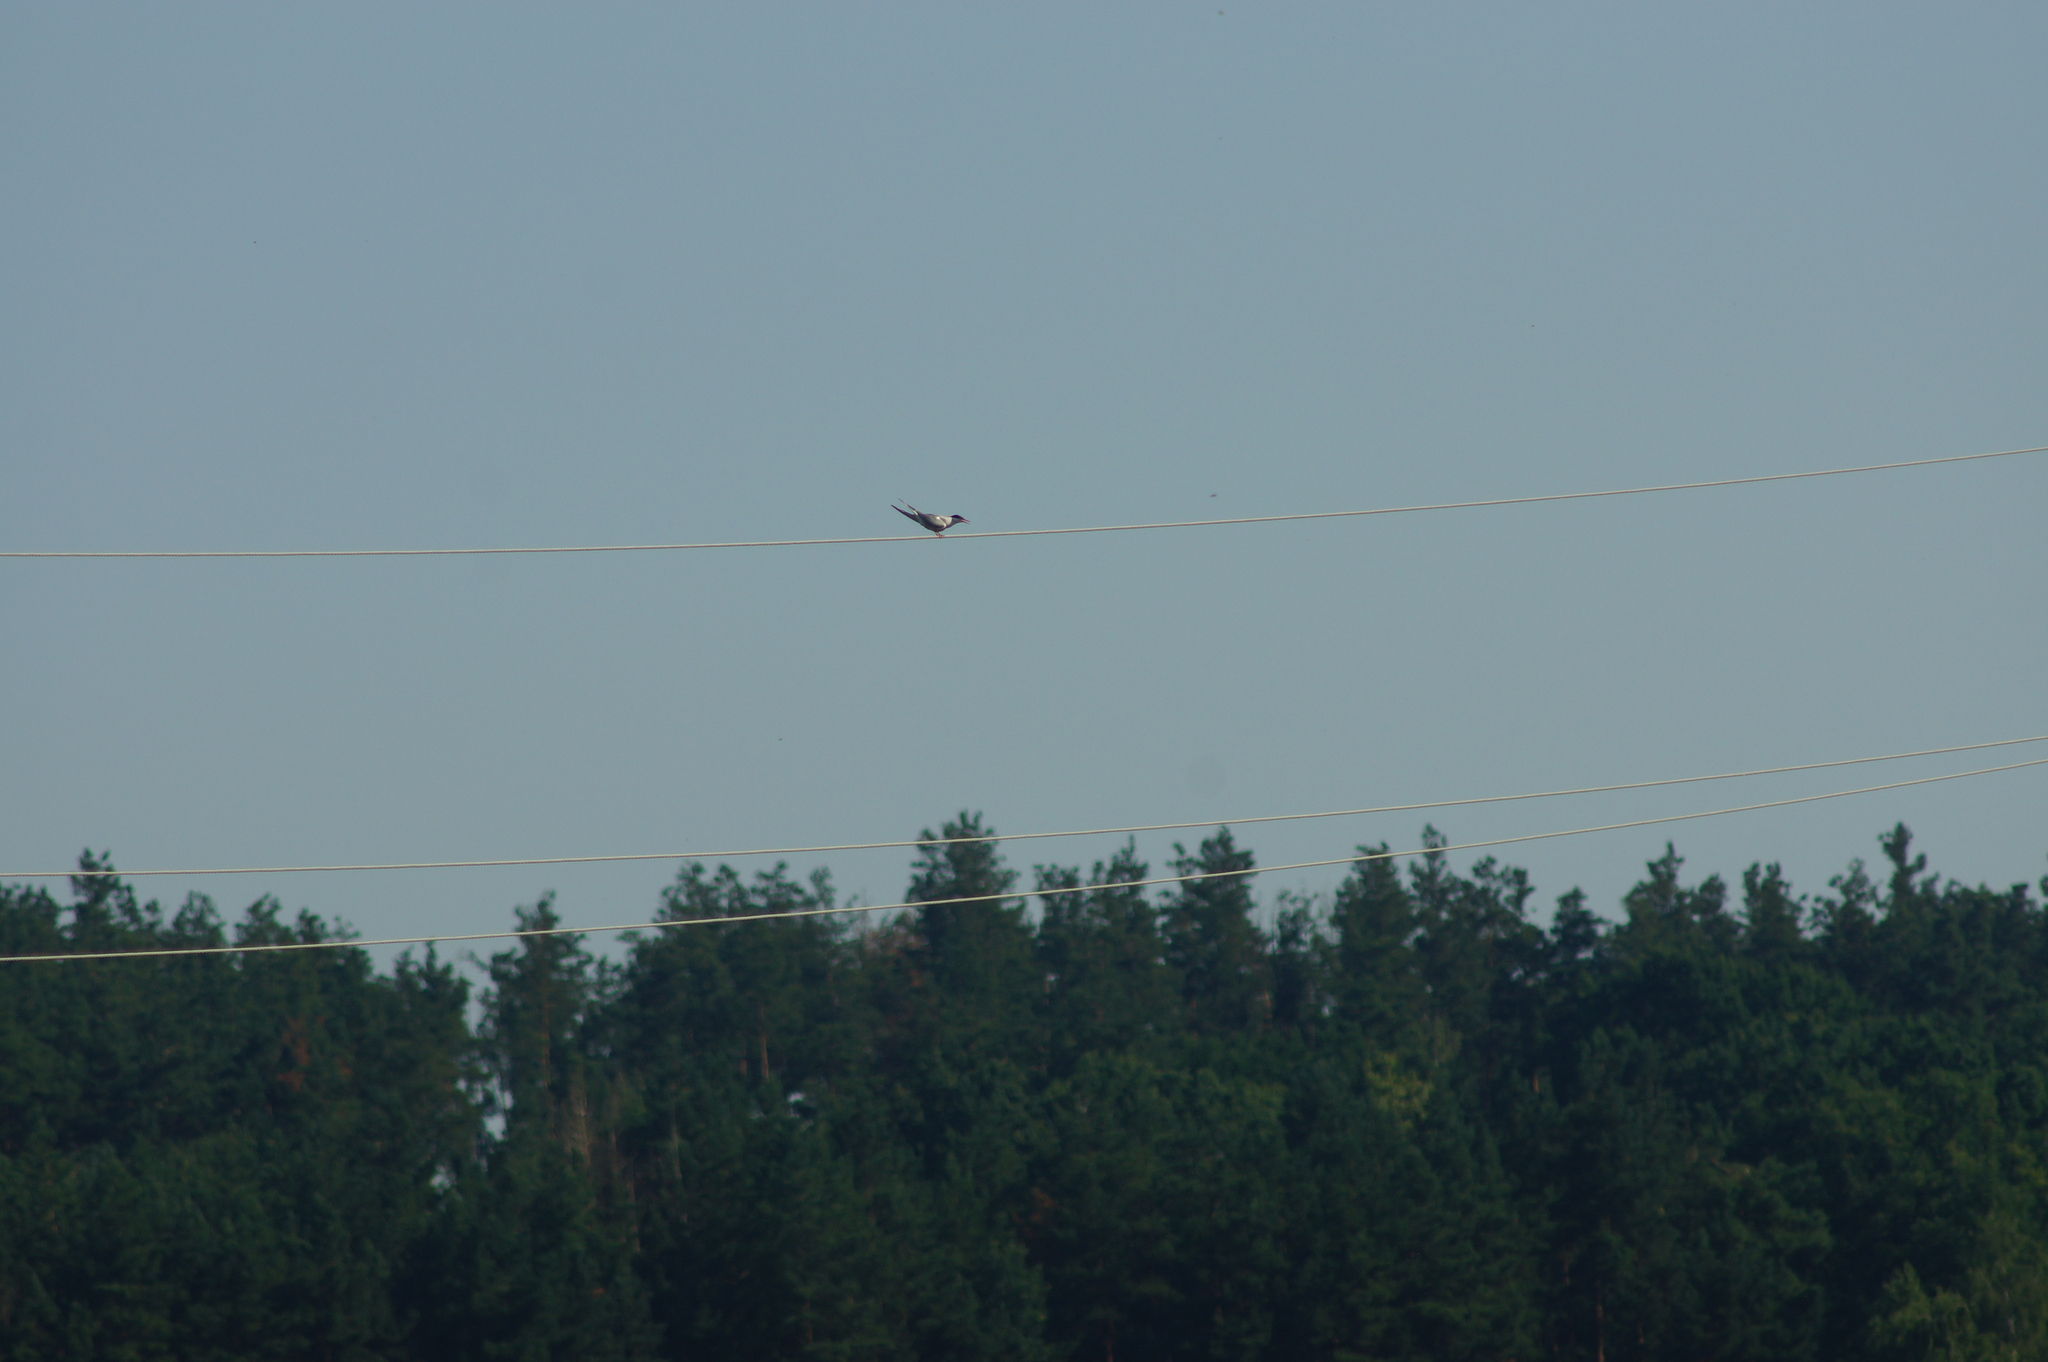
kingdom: Animalia
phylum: Chordata
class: Aves
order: Charadriiformes
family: Laridae
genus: Sterna
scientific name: Sterna hirundo
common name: Common tern
